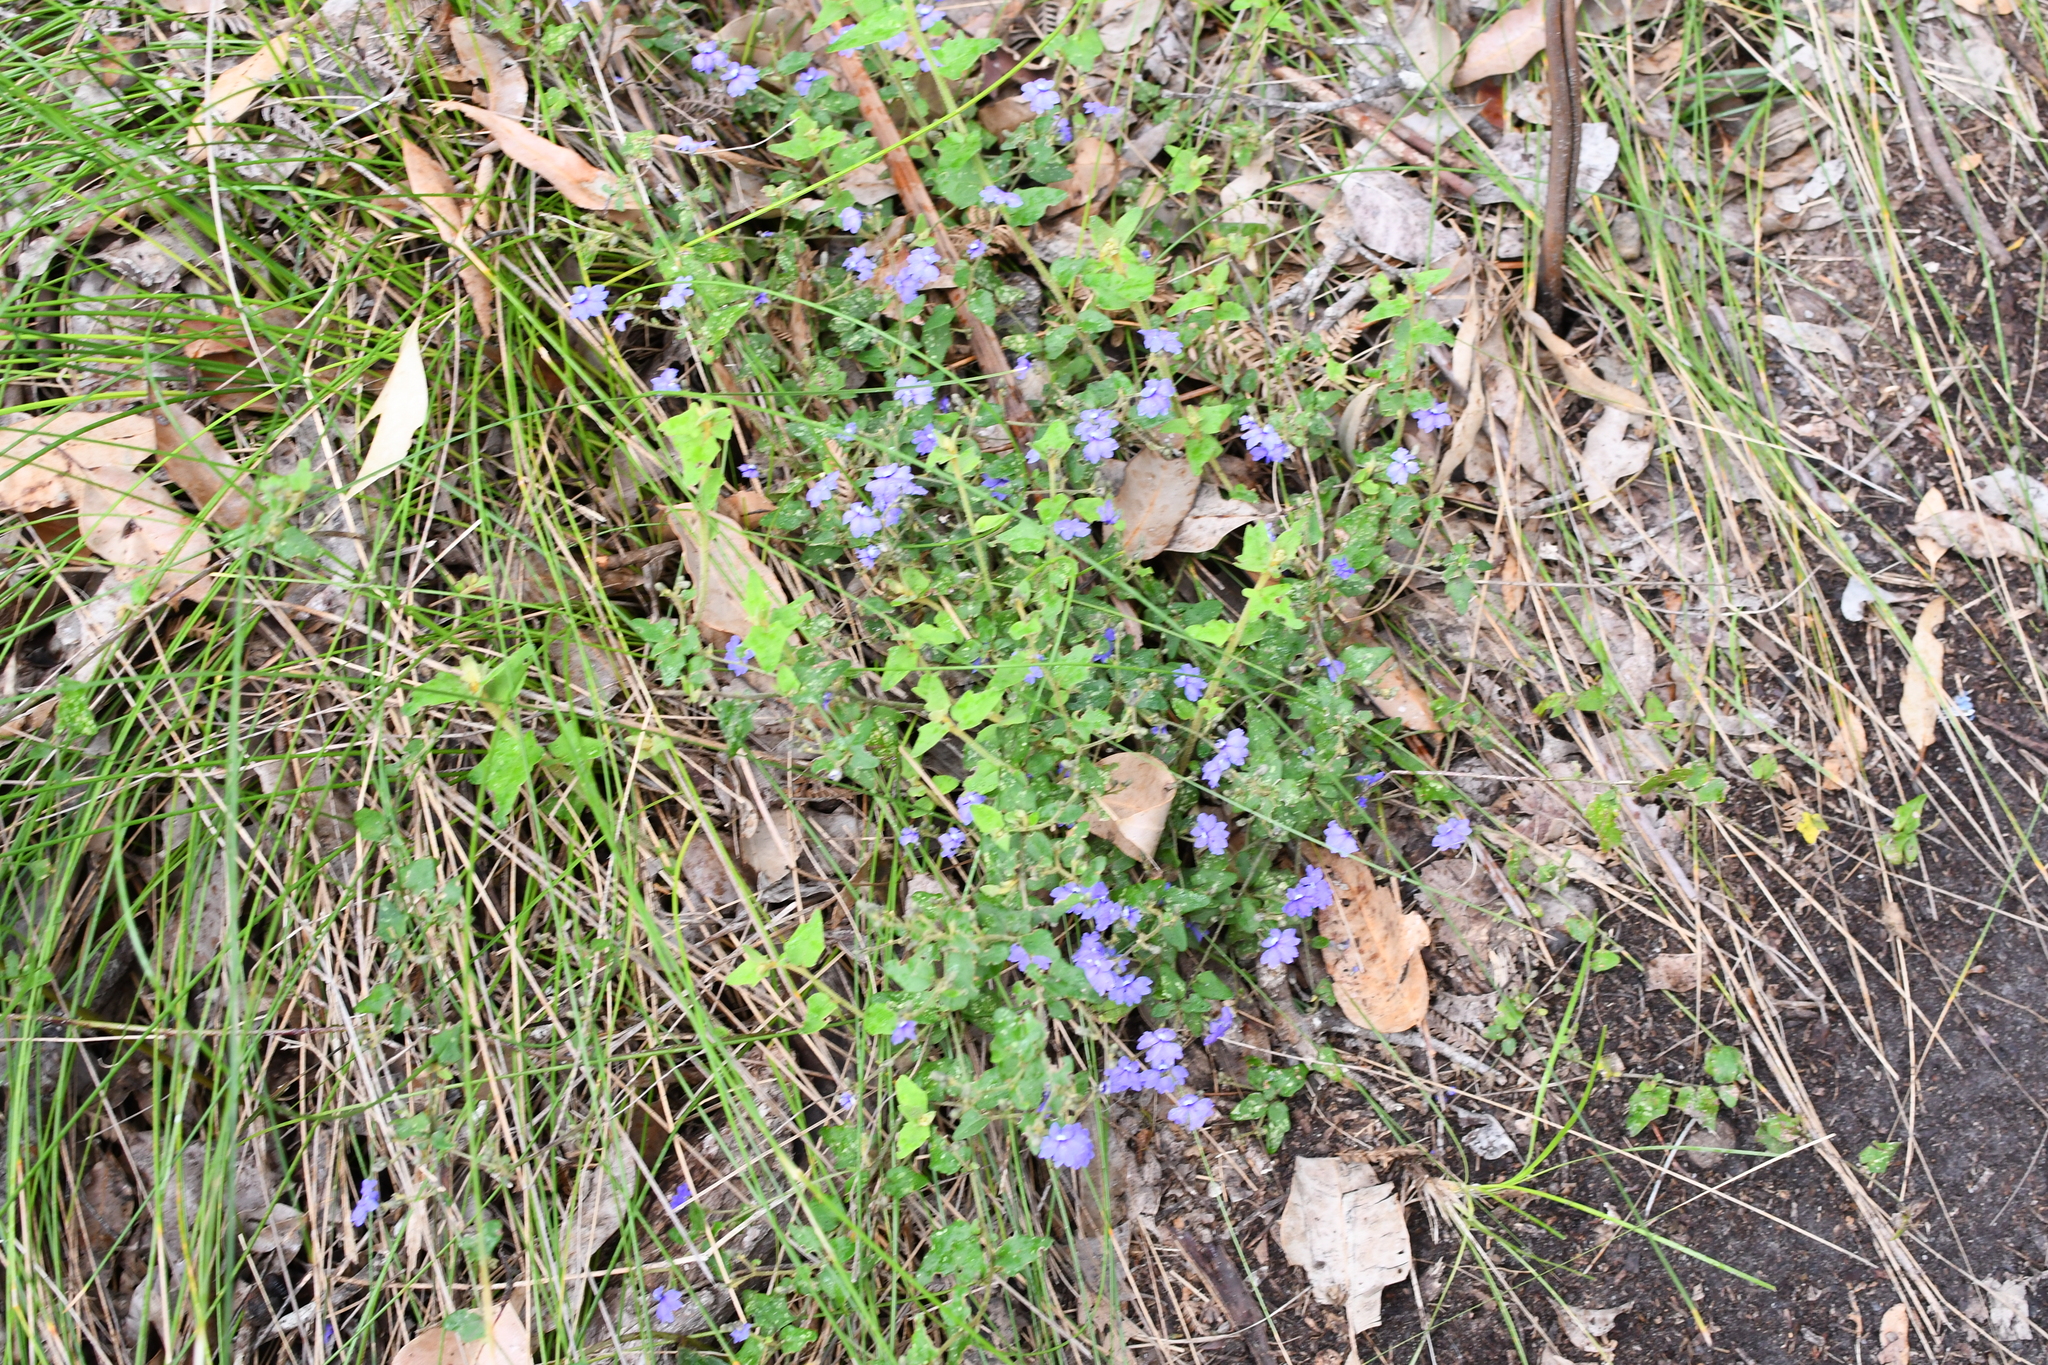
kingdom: Plantae
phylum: Tracheophyta
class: Magnoliopsida
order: Asterales
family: Goodeniaceae
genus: Dampiera
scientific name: Dampiera hederacea
